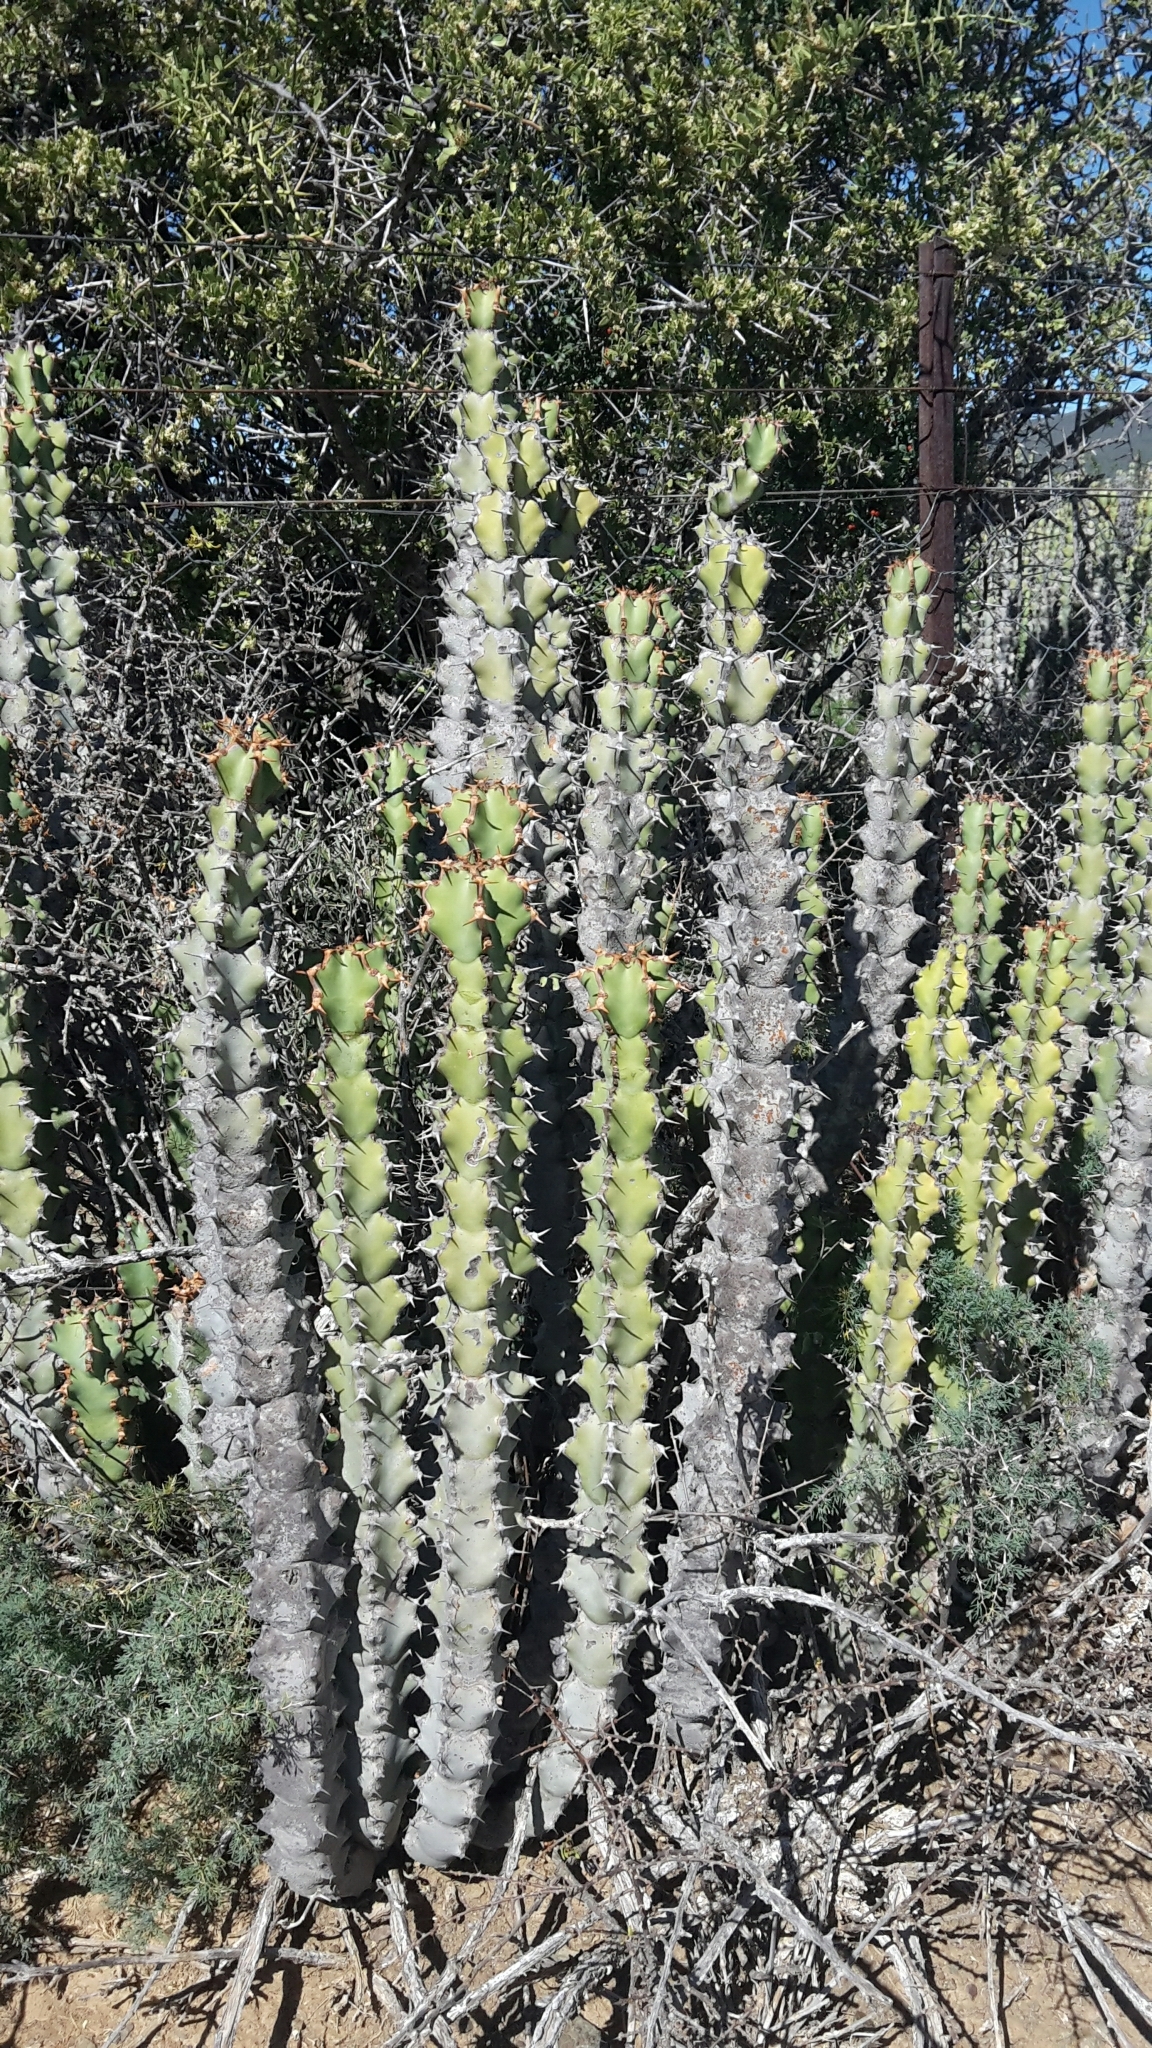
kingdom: Plantae
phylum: Tracheophyta
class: Magnoliopsida
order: Malpighiales
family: Euphorbiaceae
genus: Euphorbia
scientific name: Euphorbia radyeri
